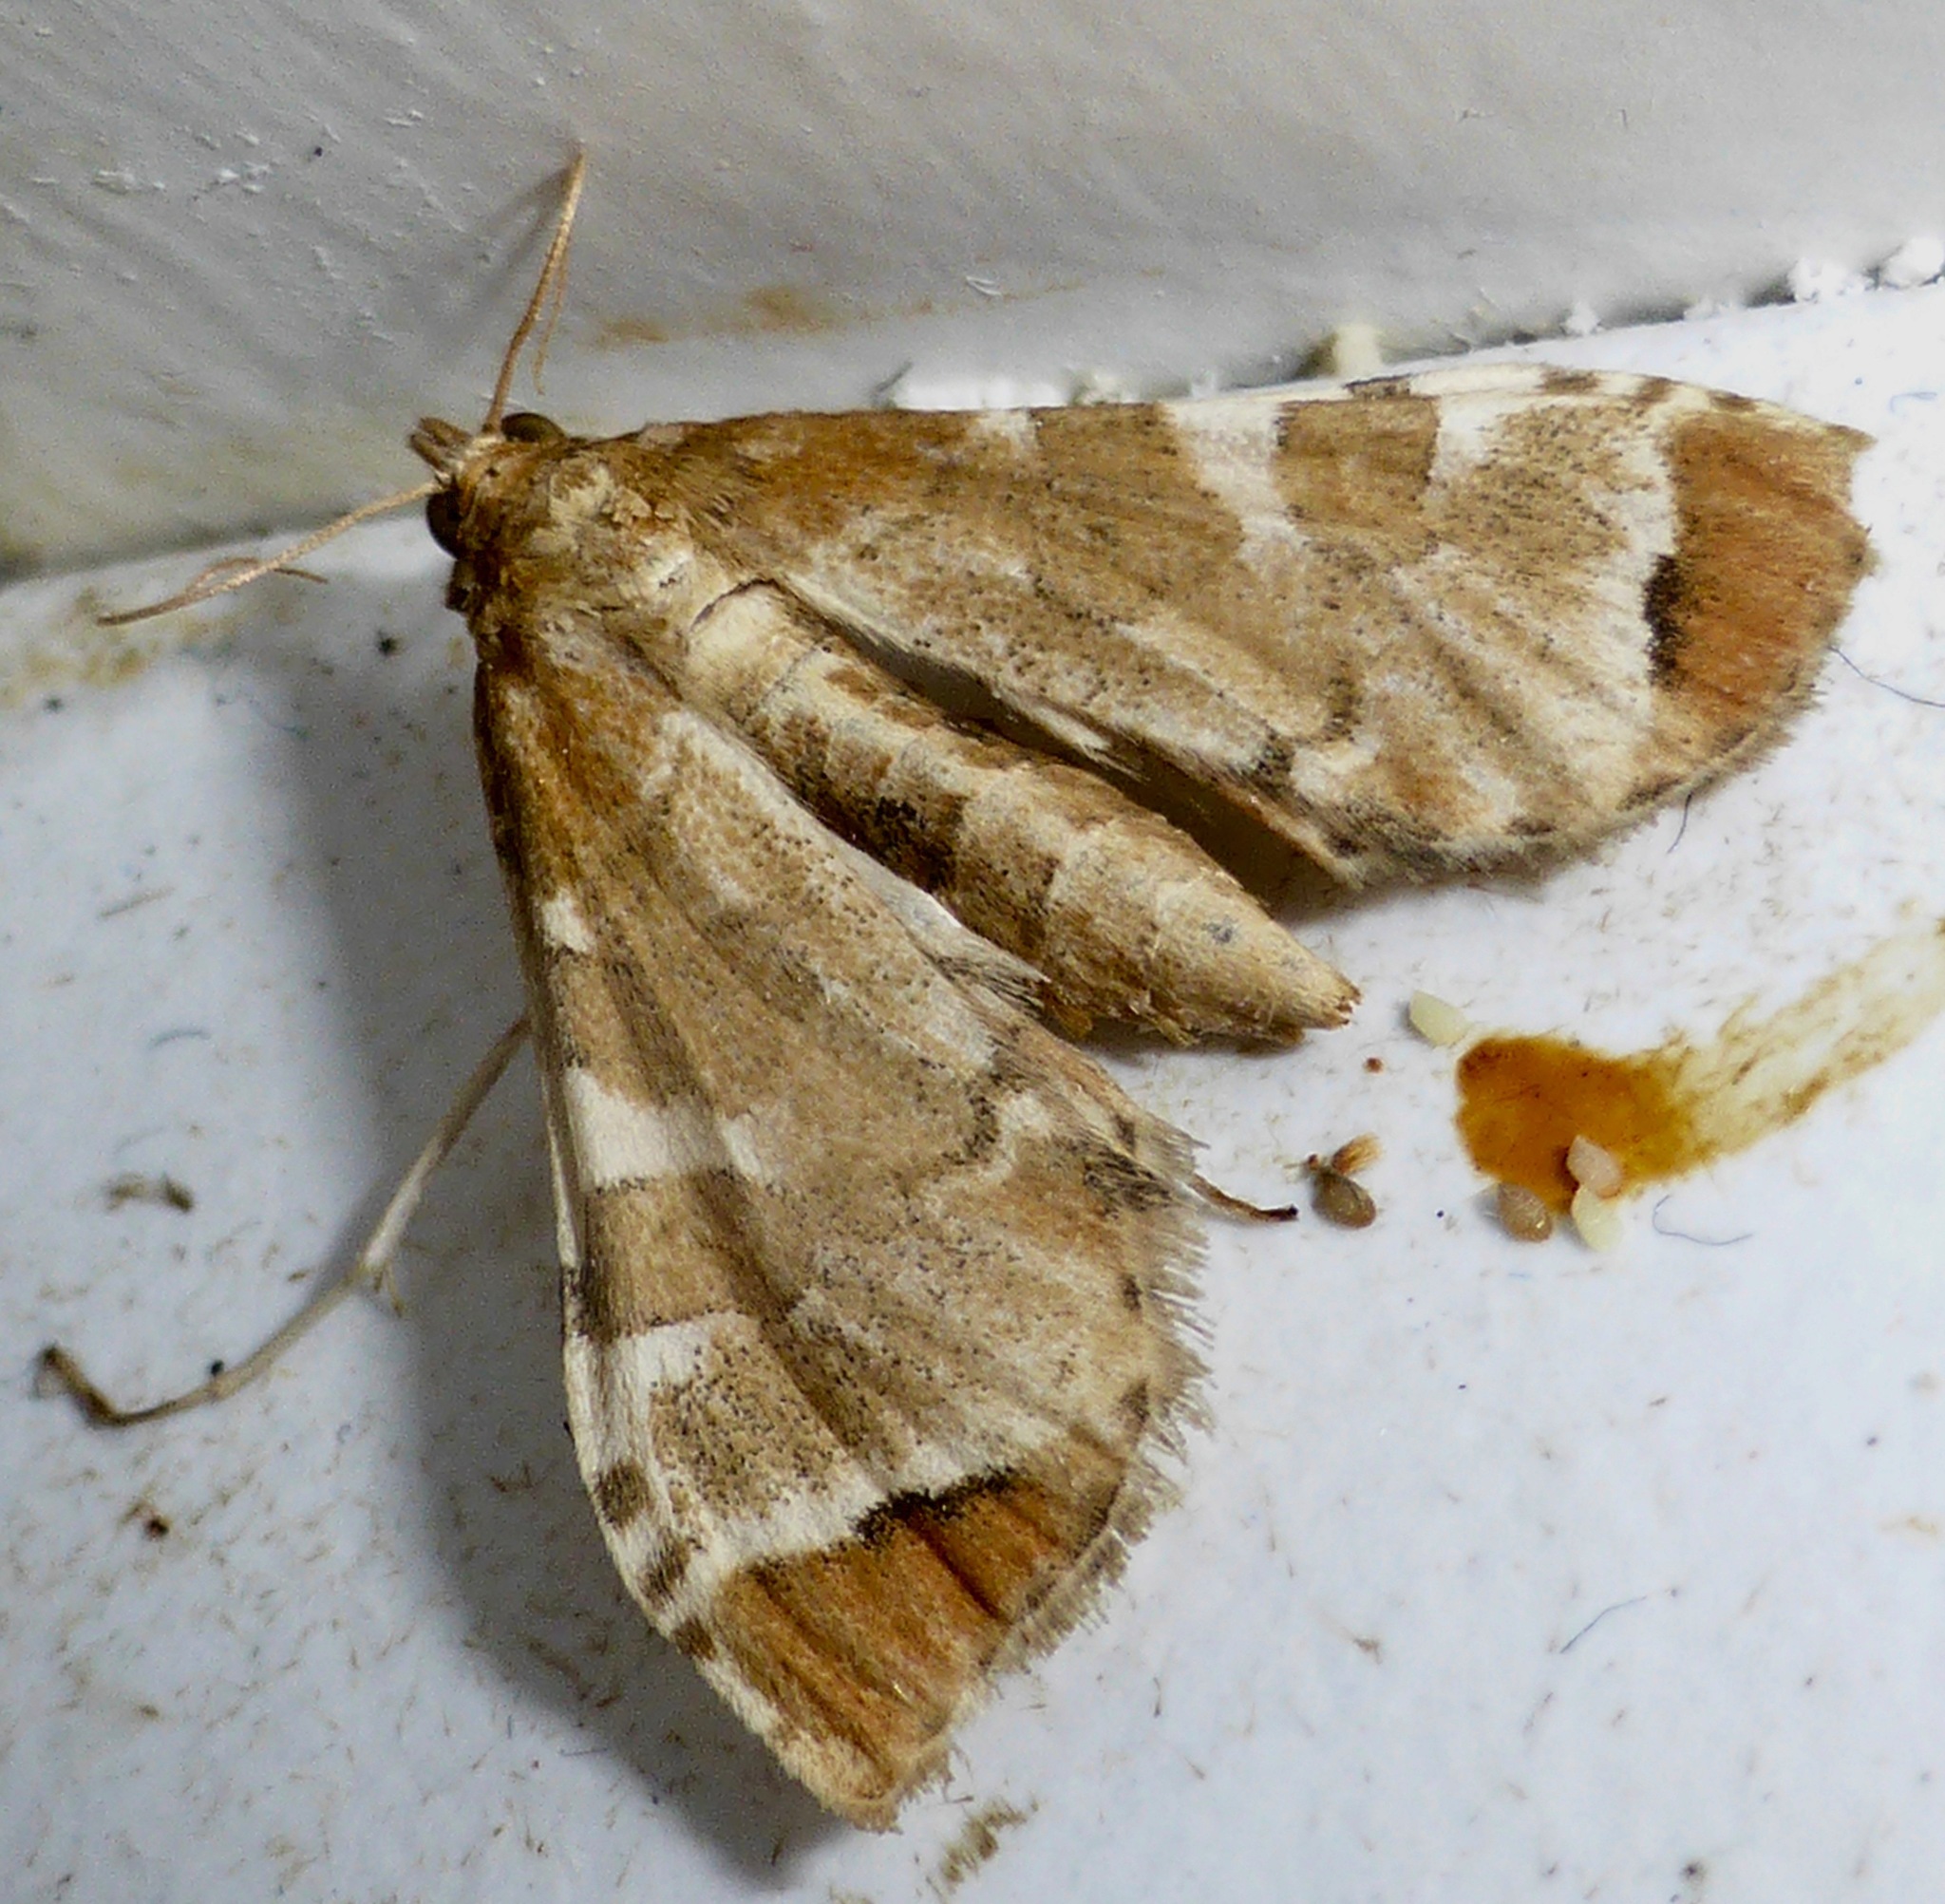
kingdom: Animalia
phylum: Arthropoda
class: Insecta
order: Lepidoptera
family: Crambidae
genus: Sceliodes
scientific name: Sceliodes cordalis
